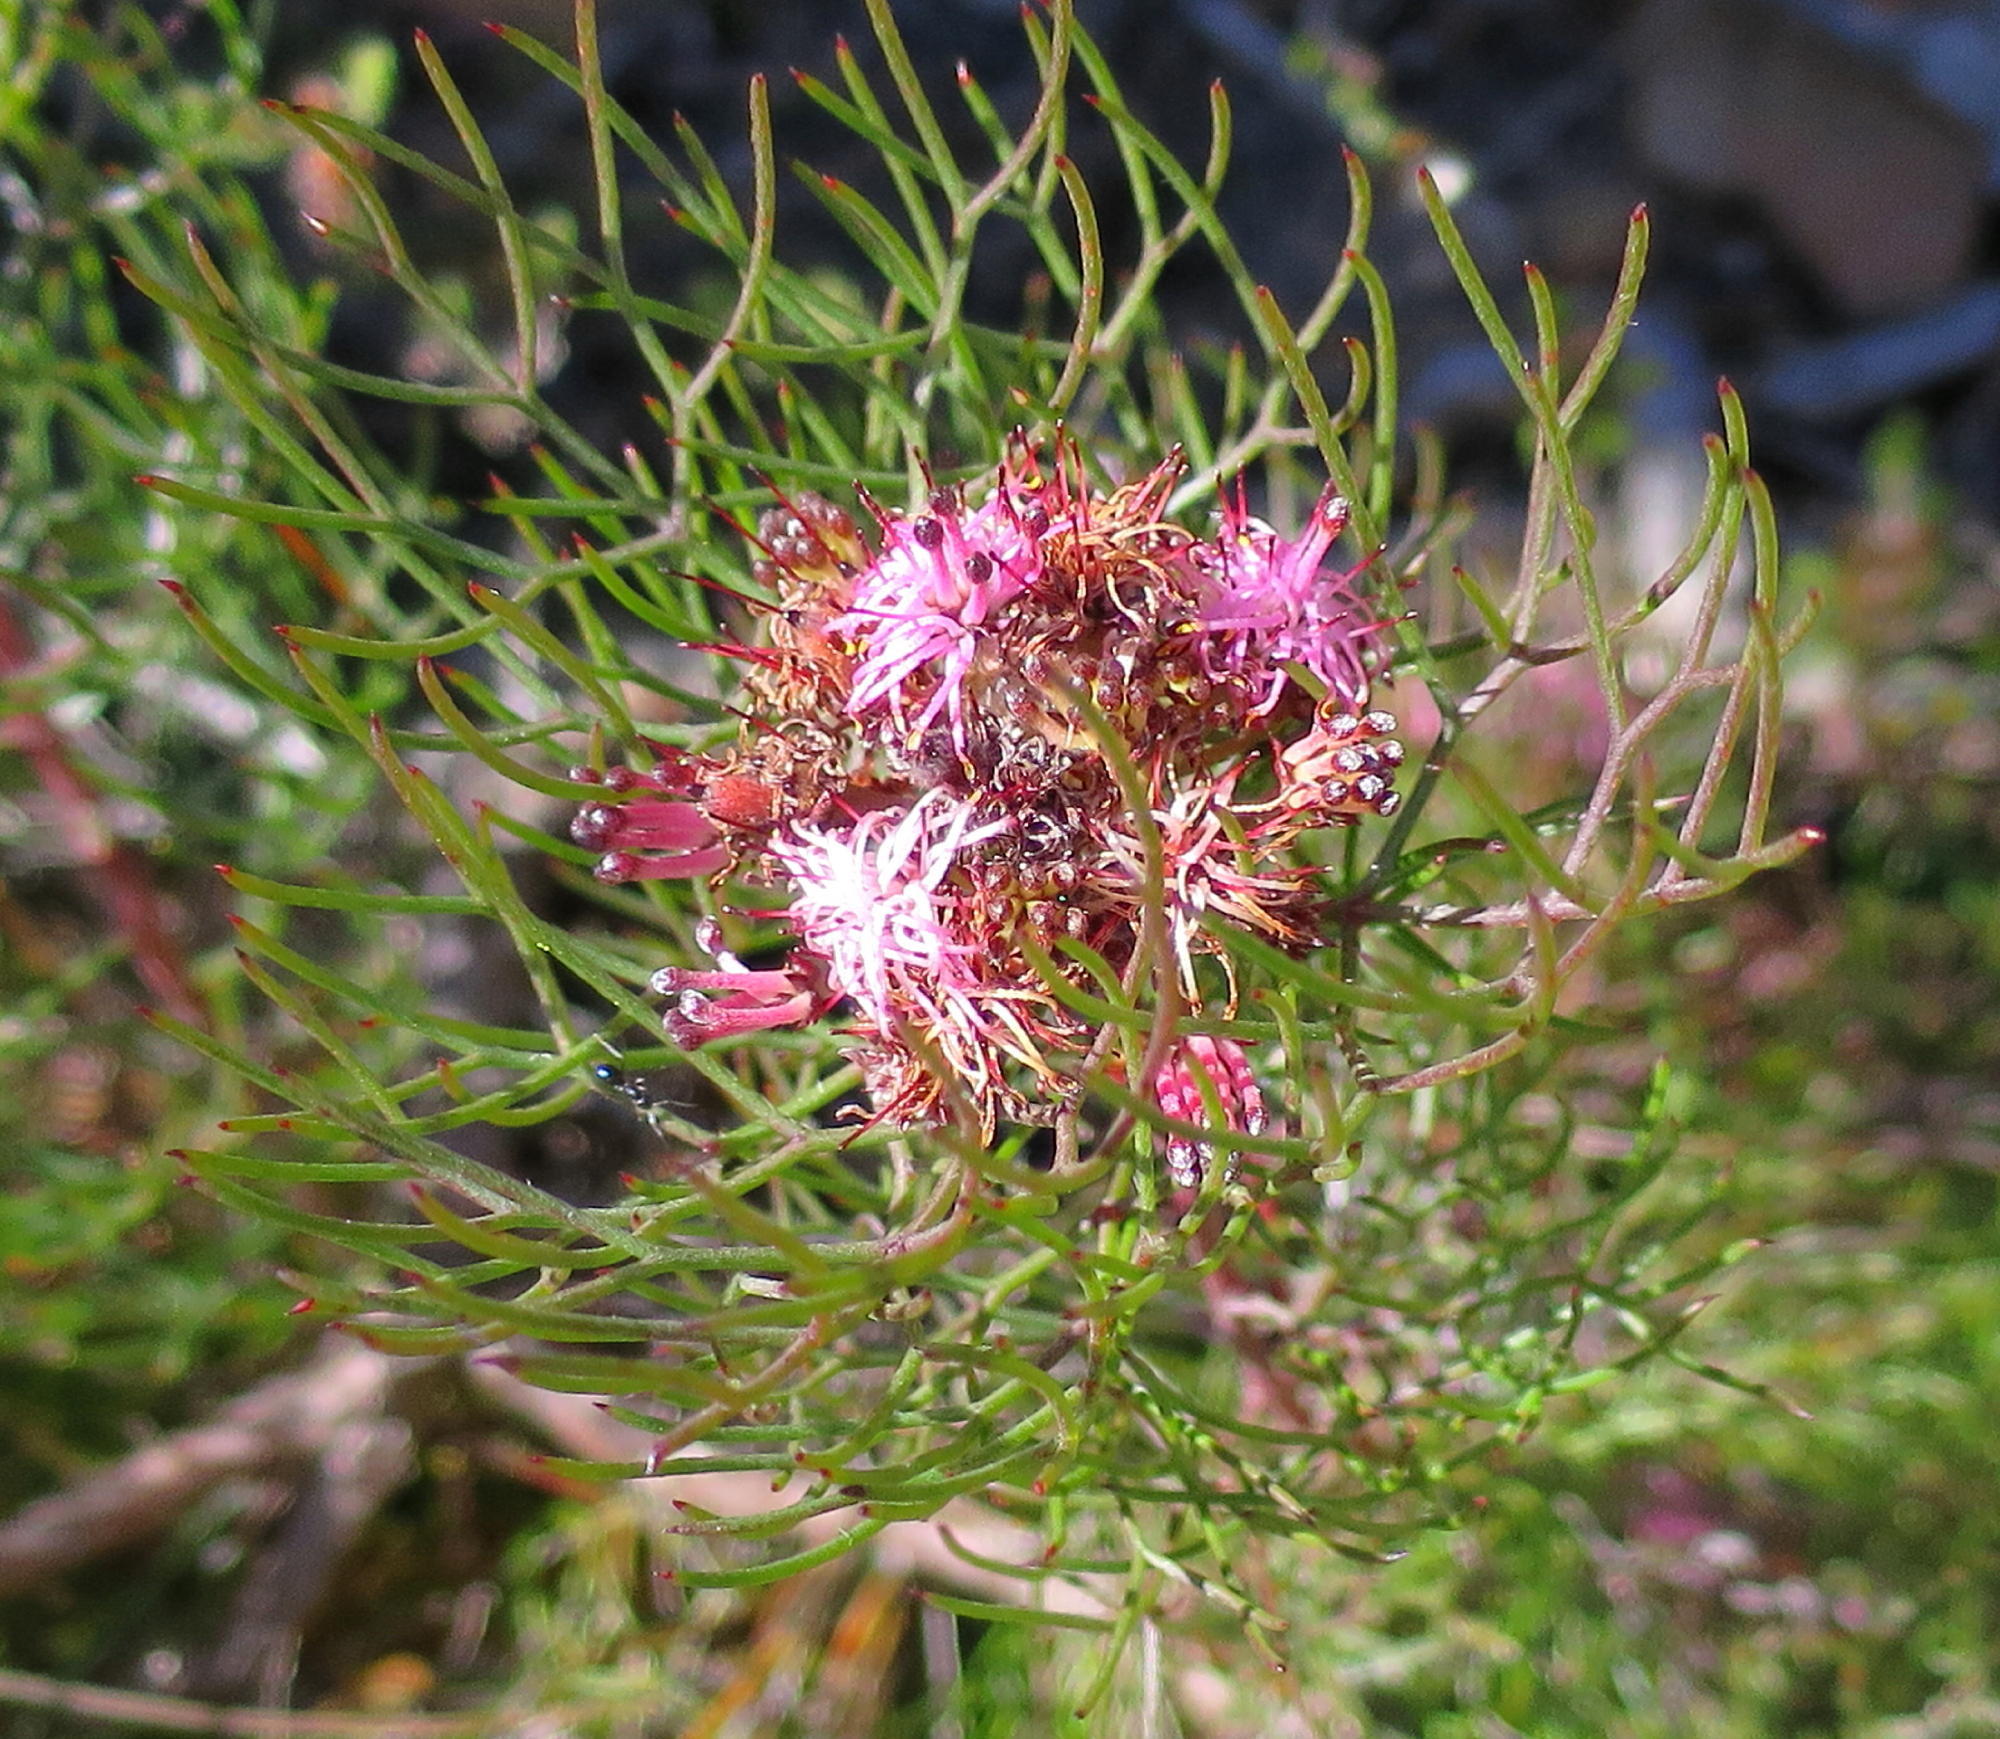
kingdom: Plantae
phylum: Tracheophyta
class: Magnoliopsida
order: Proteales
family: Proteaceae
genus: Serruria
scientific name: Serruria fasciflora
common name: Common pin spiderhead
